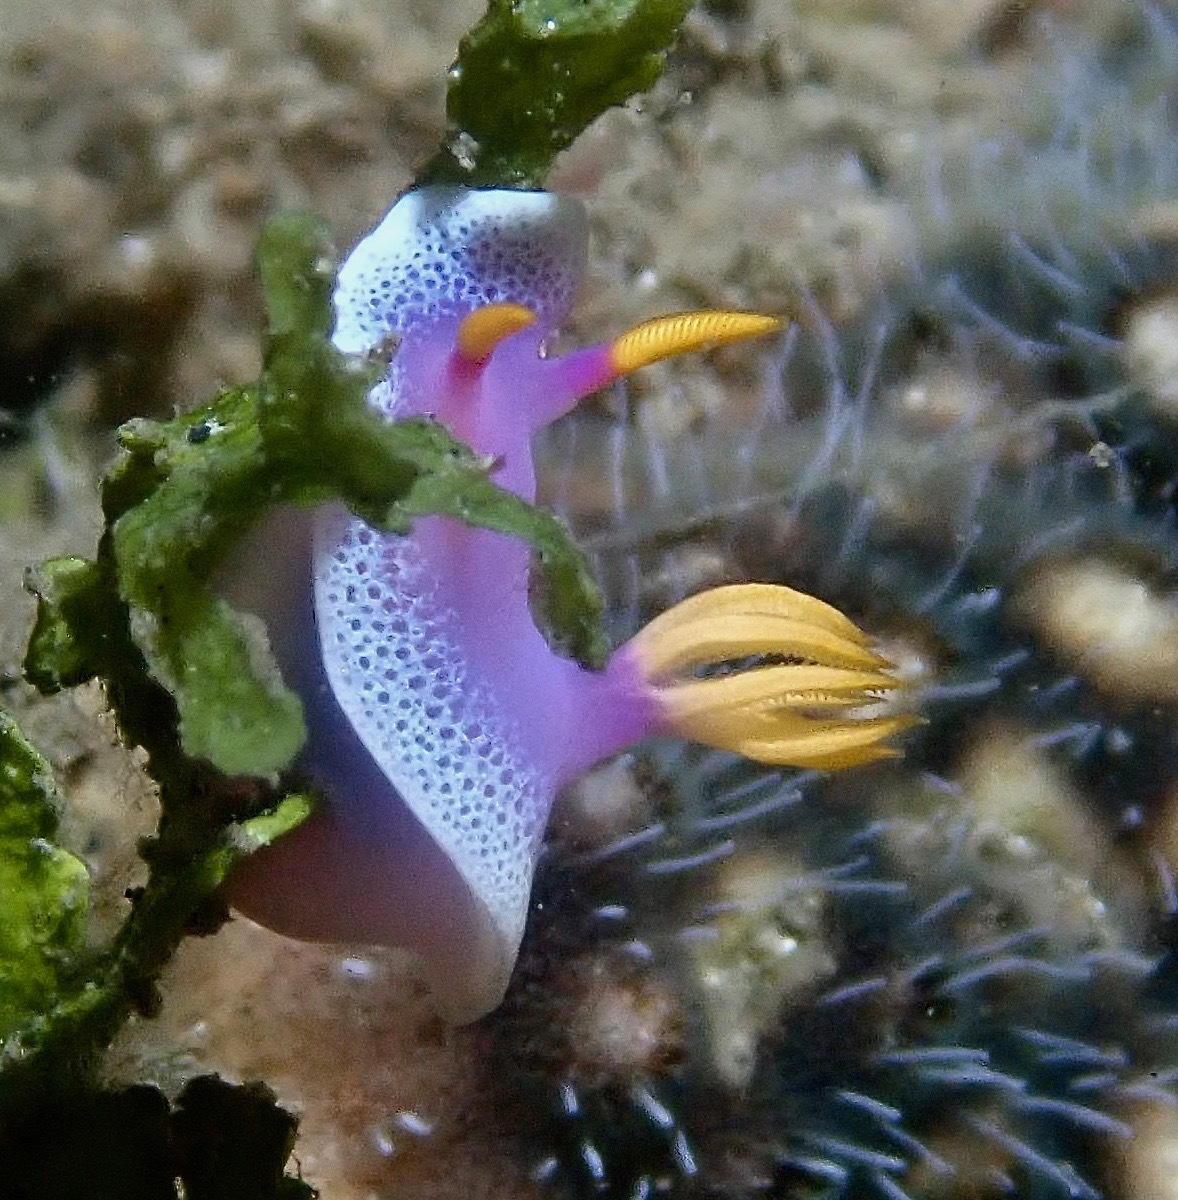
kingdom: Animalia
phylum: Mollusca
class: Gastropoda
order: Nudibranchia
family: Chromodorididae
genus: Hypselodoris
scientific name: Hypselodoris apolegma
